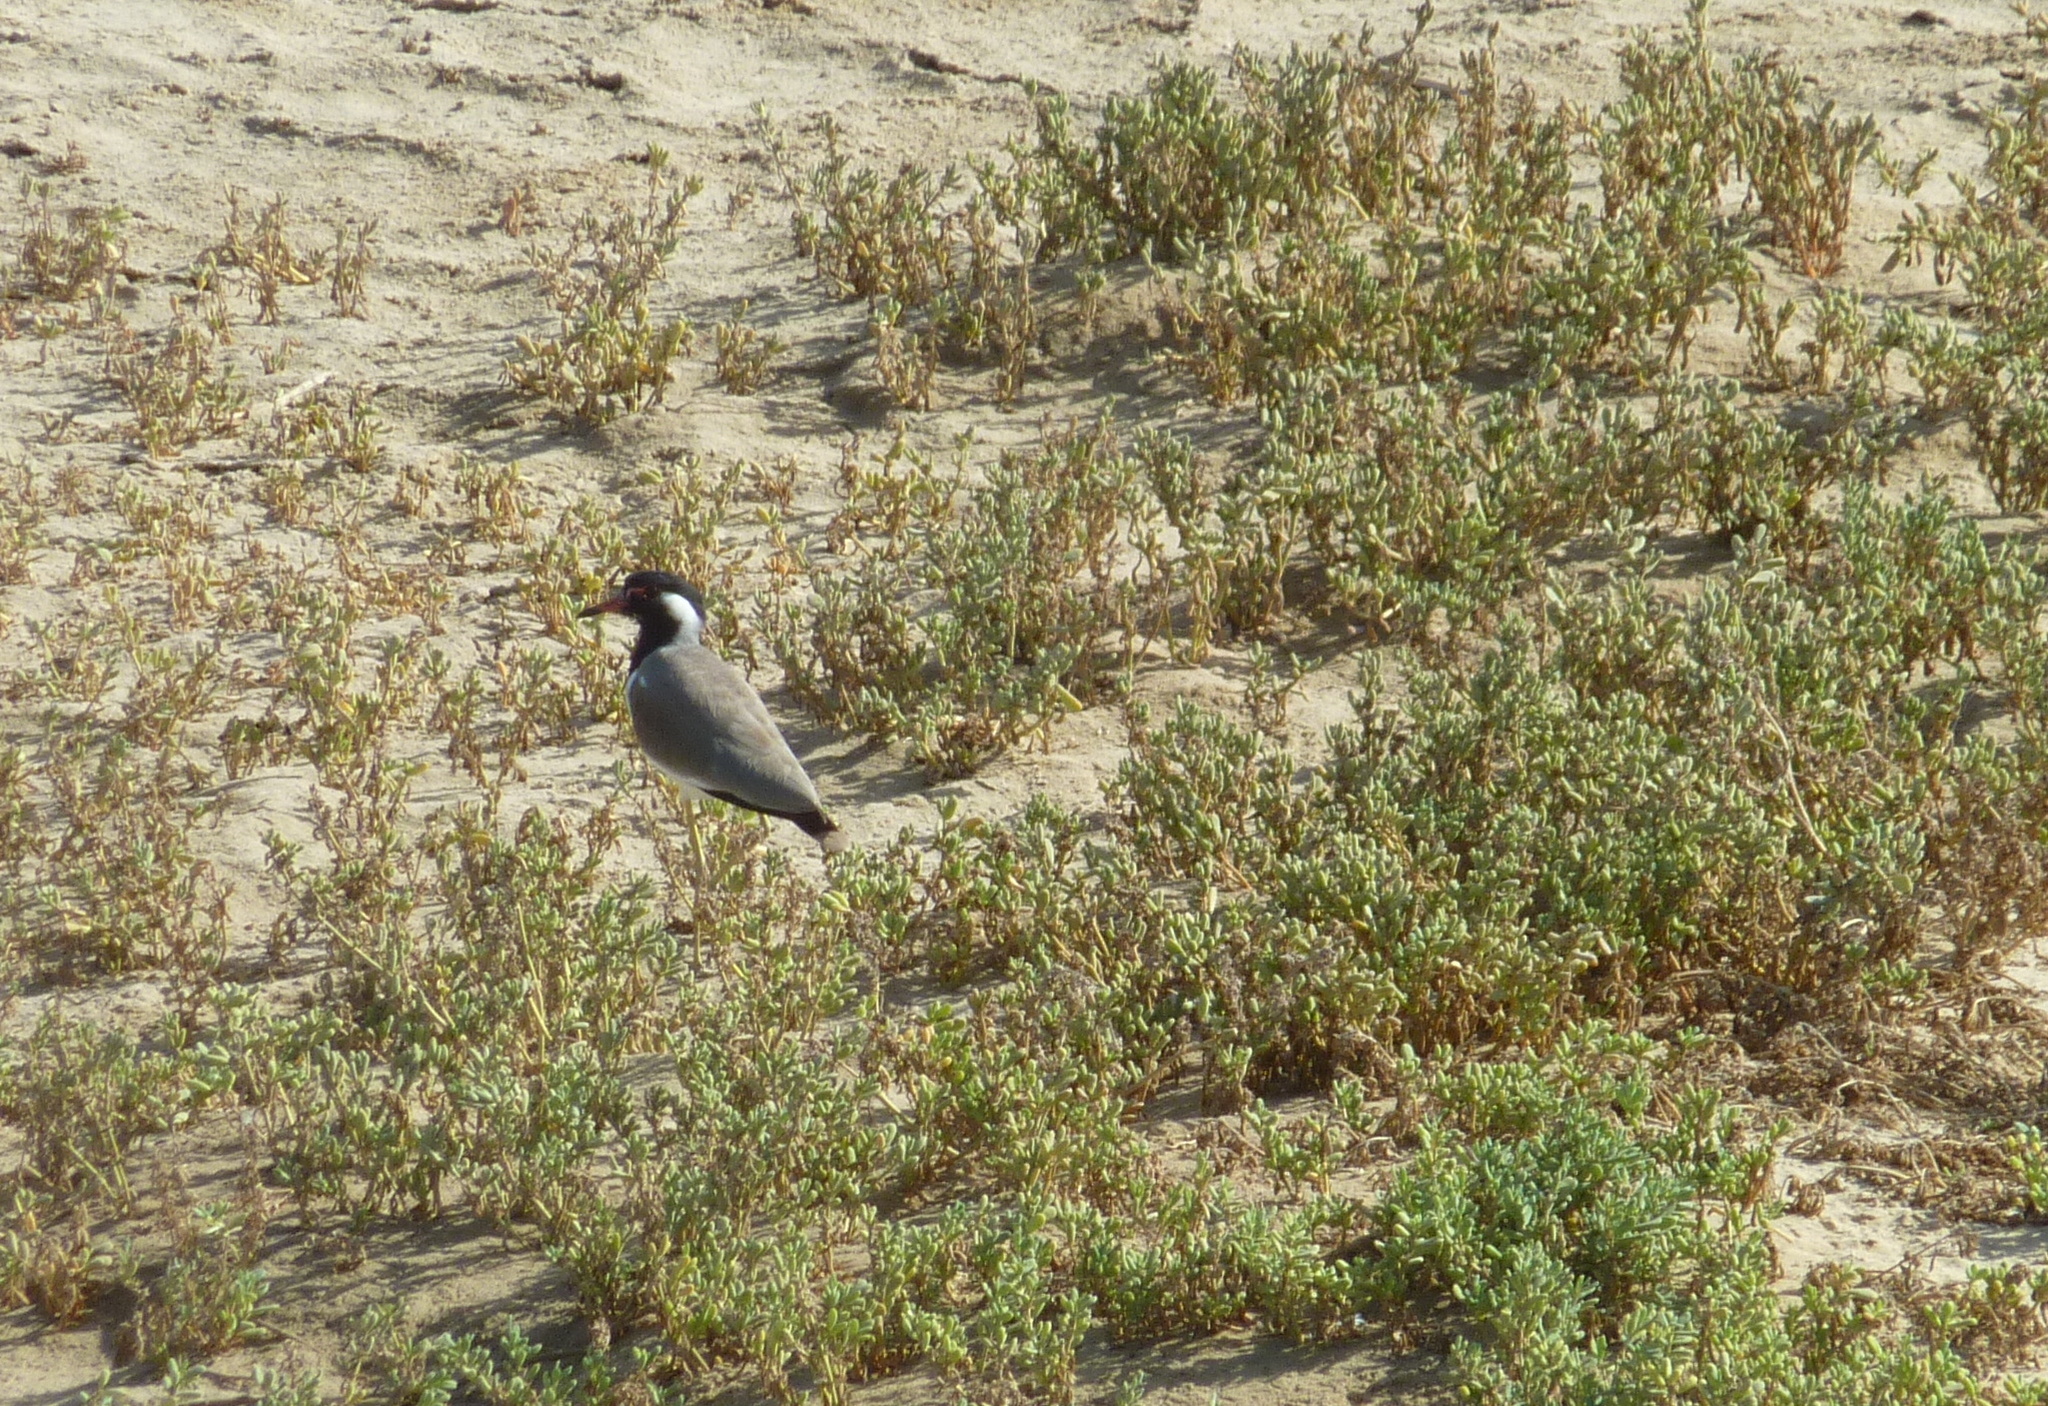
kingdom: Animalia
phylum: Chordata
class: Aves
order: Charadriiformes
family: Charadriidae
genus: Vanellus
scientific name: Vanellus indicus
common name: Red-wattled lapwing
